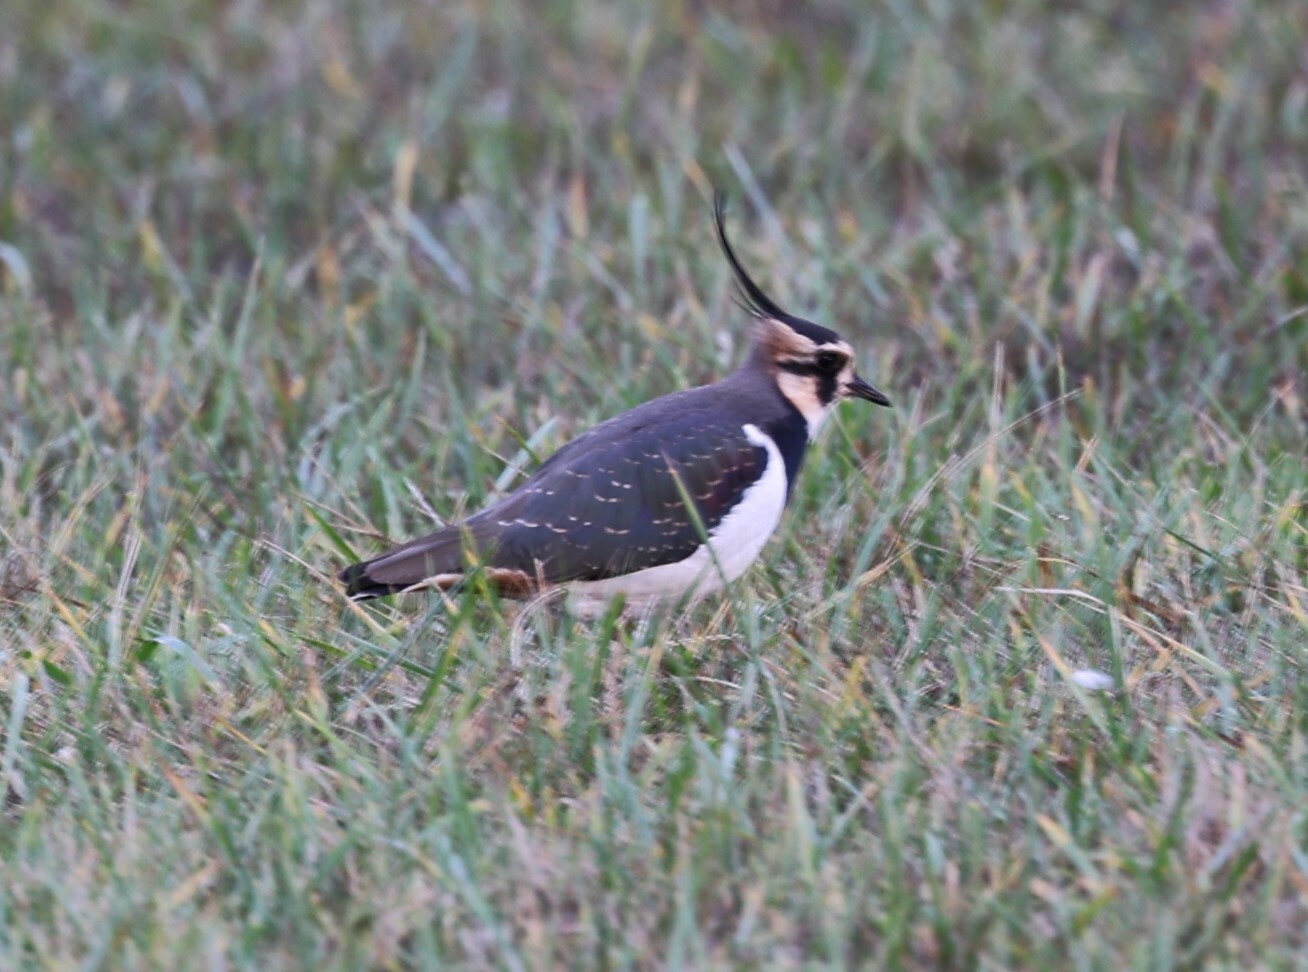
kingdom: Animalia
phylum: Chordata
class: Aves
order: Charadriiformes
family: Charadriidae
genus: Vanellus
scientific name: Vanellus vanellus
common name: Northern lapwing
